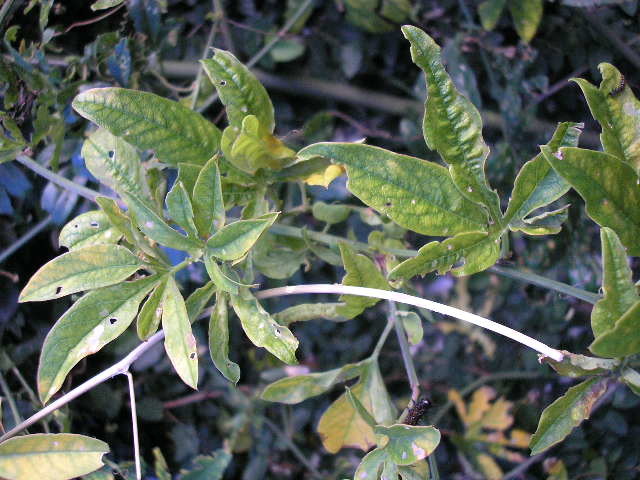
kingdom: Plantae
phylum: Tracheophyta
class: Magnoliopsida
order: Malpighiales
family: Passifloraceae
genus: Passiflora
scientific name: Passiflora caerulea
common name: Blue passionflower
